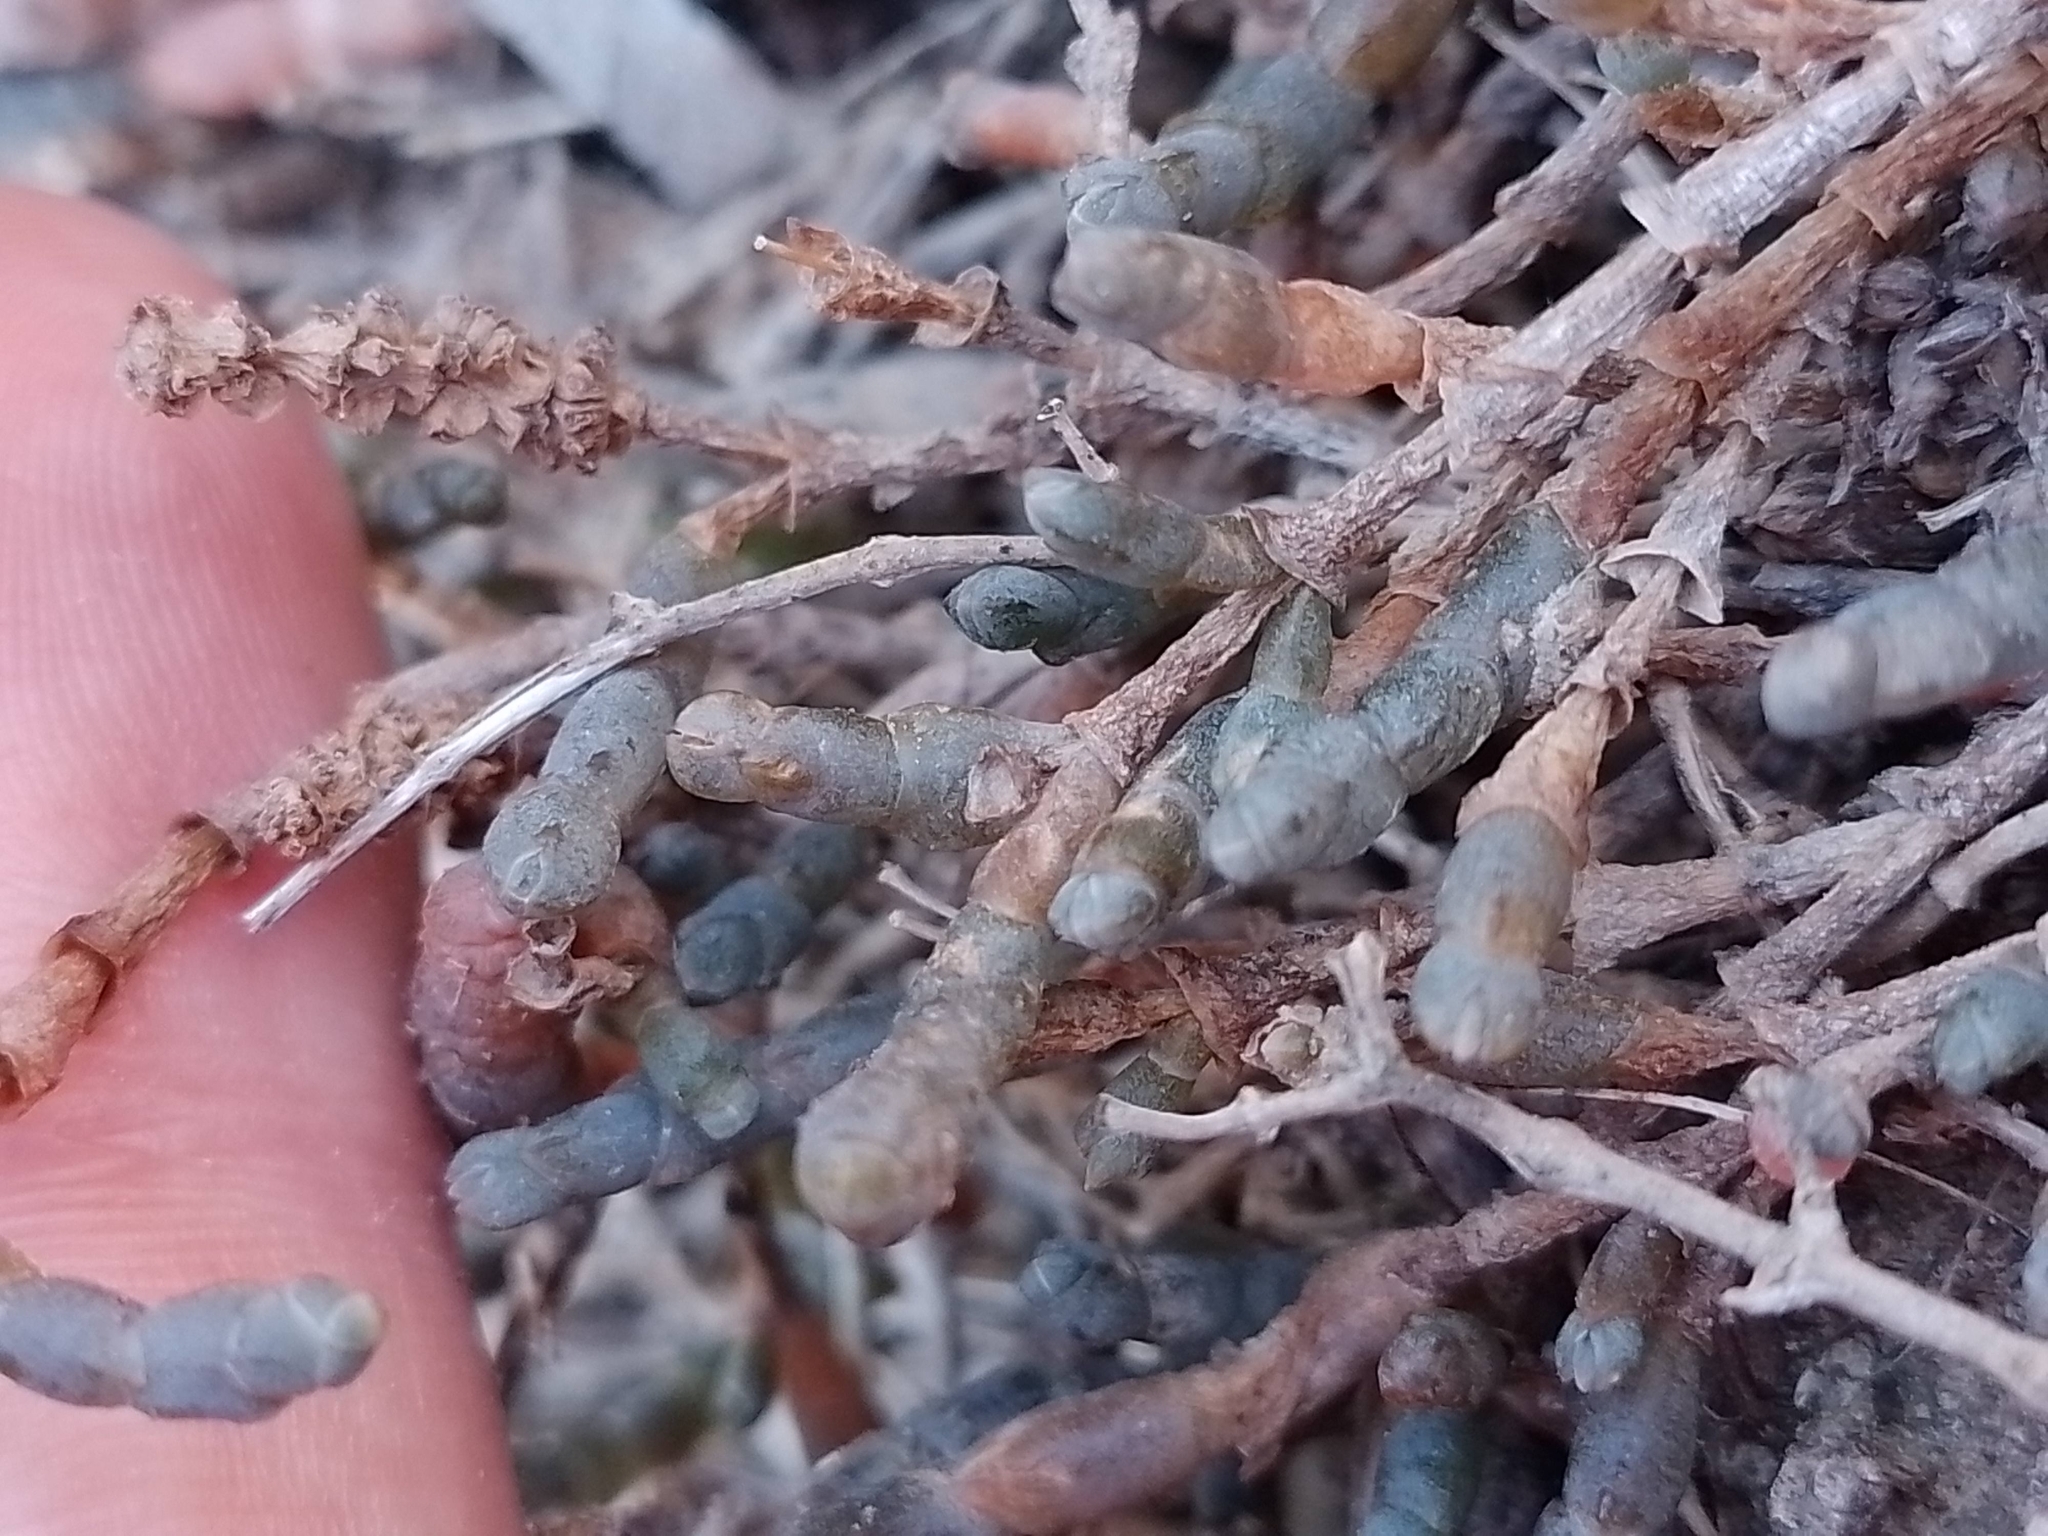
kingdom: Plantae
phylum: Tracheophyta
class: Magnoliopsida
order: Caryophyllales
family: Amaranthaceae
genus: Salicornia
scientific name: Salicornia quinqueflora
